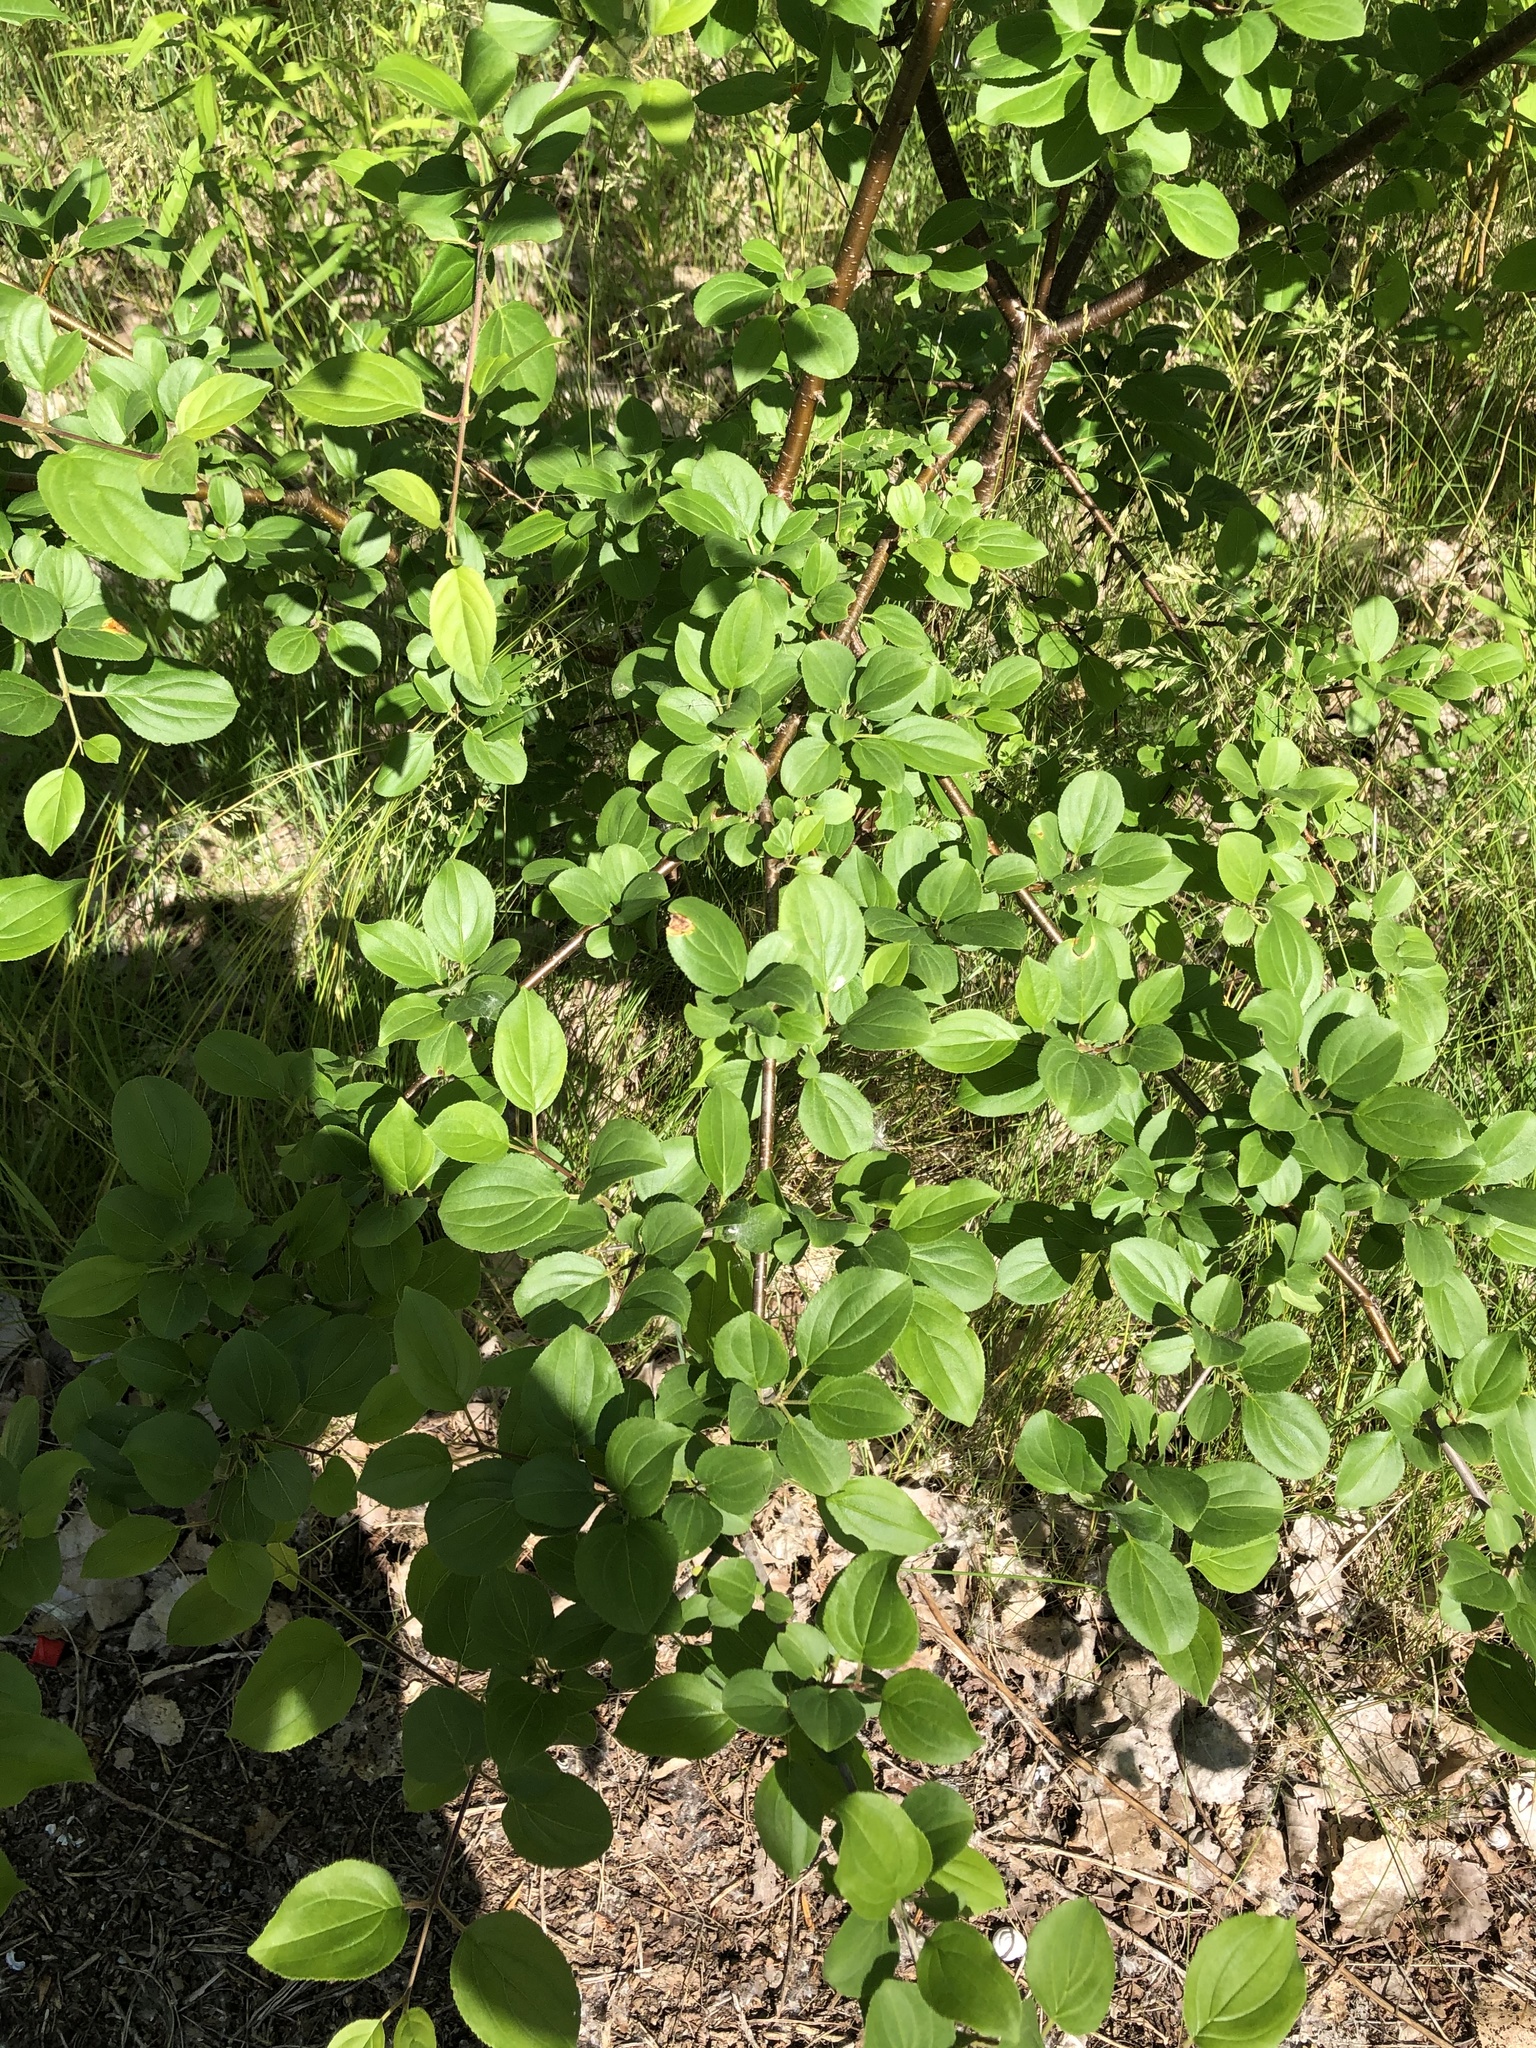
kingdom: Plantae
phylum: Tracheophyta
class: Magnoliopsida
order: Rosales
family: Rhamnaceae
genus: Rhamnus
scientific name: Rhamnus cathartica
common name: Common buckthorn
